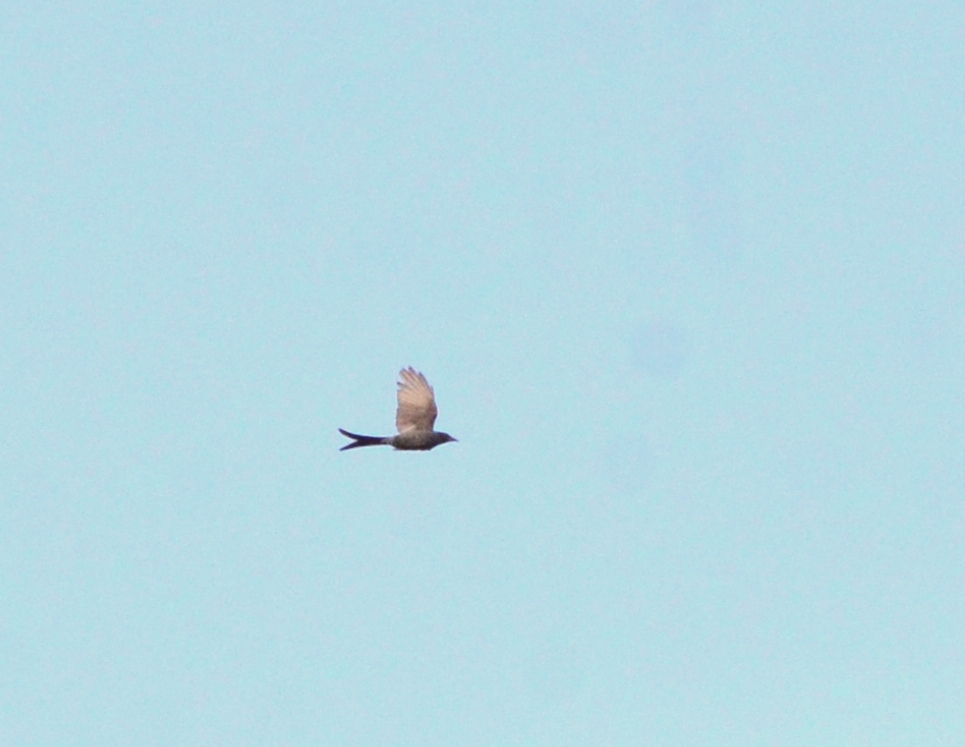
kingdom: Animalia
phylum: Chordata
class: Aves
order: Passeriformes
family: Dicruridae
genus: Dicrurus
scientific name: Dicrurus leucophaeus
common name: Ashy drongo
